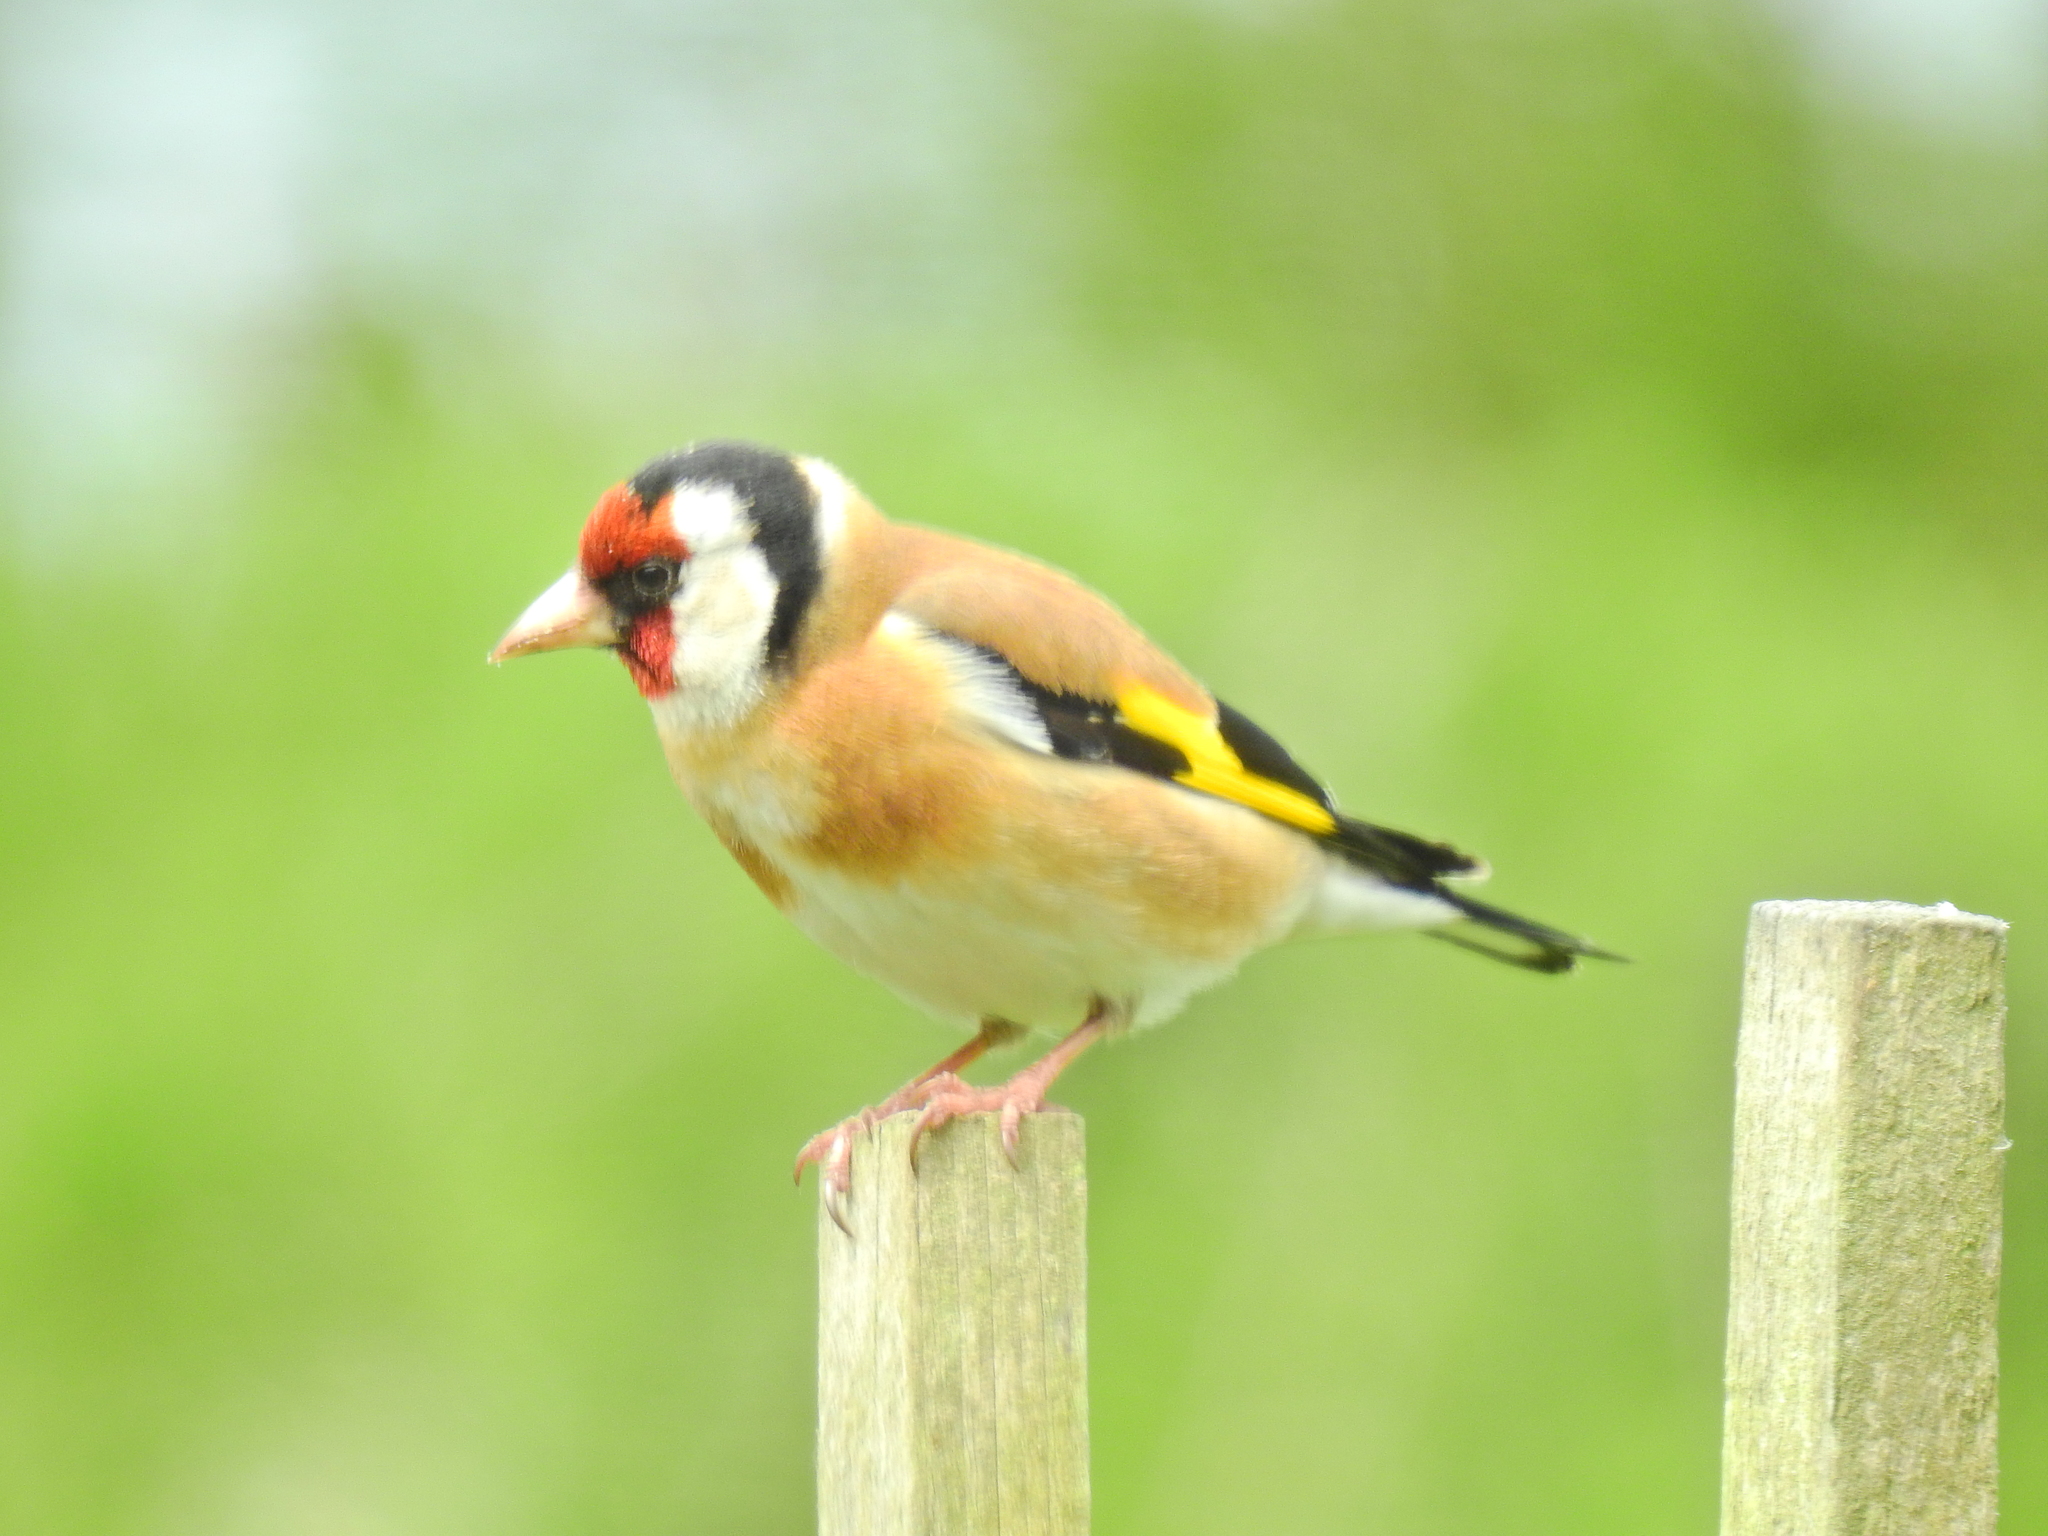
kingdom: Animalia
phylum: Chordata
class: Aves
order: Passeriformes
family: Fringillidae
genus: Carduelis
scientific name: Carduelis carduelis
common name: European goldfinch
